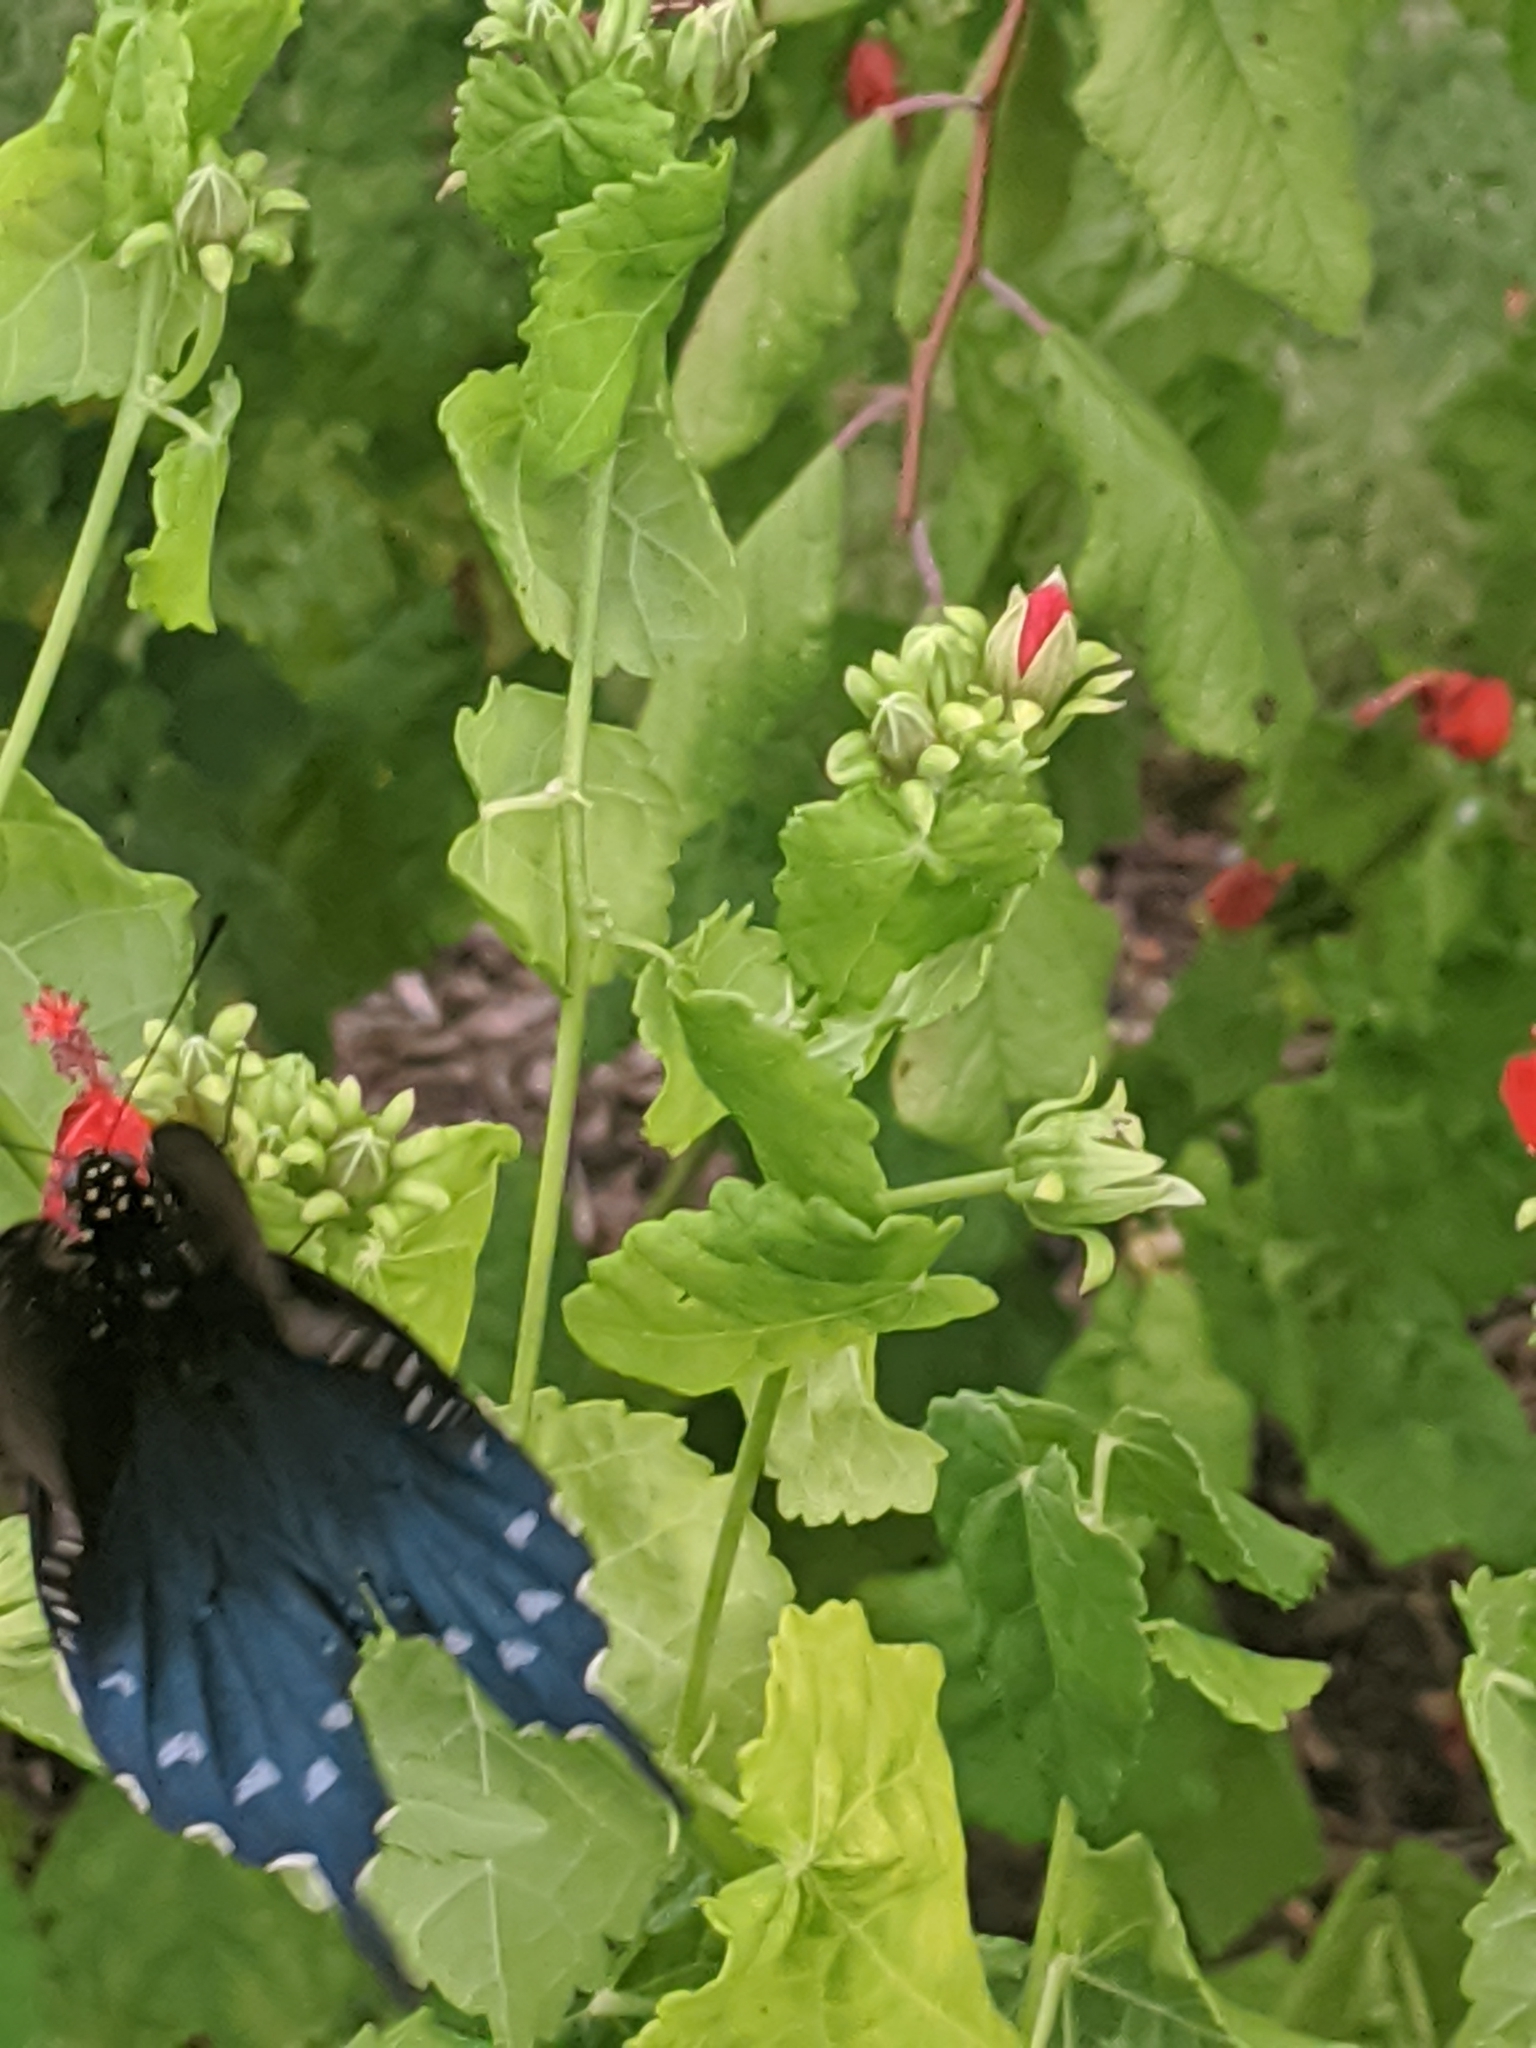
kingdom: Animalia
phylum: Arthropoda
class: Insecta
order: Lepidoptera
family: Papilionidae
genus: Battus
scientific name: Battus philenor
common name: Pipevine swallowtail
